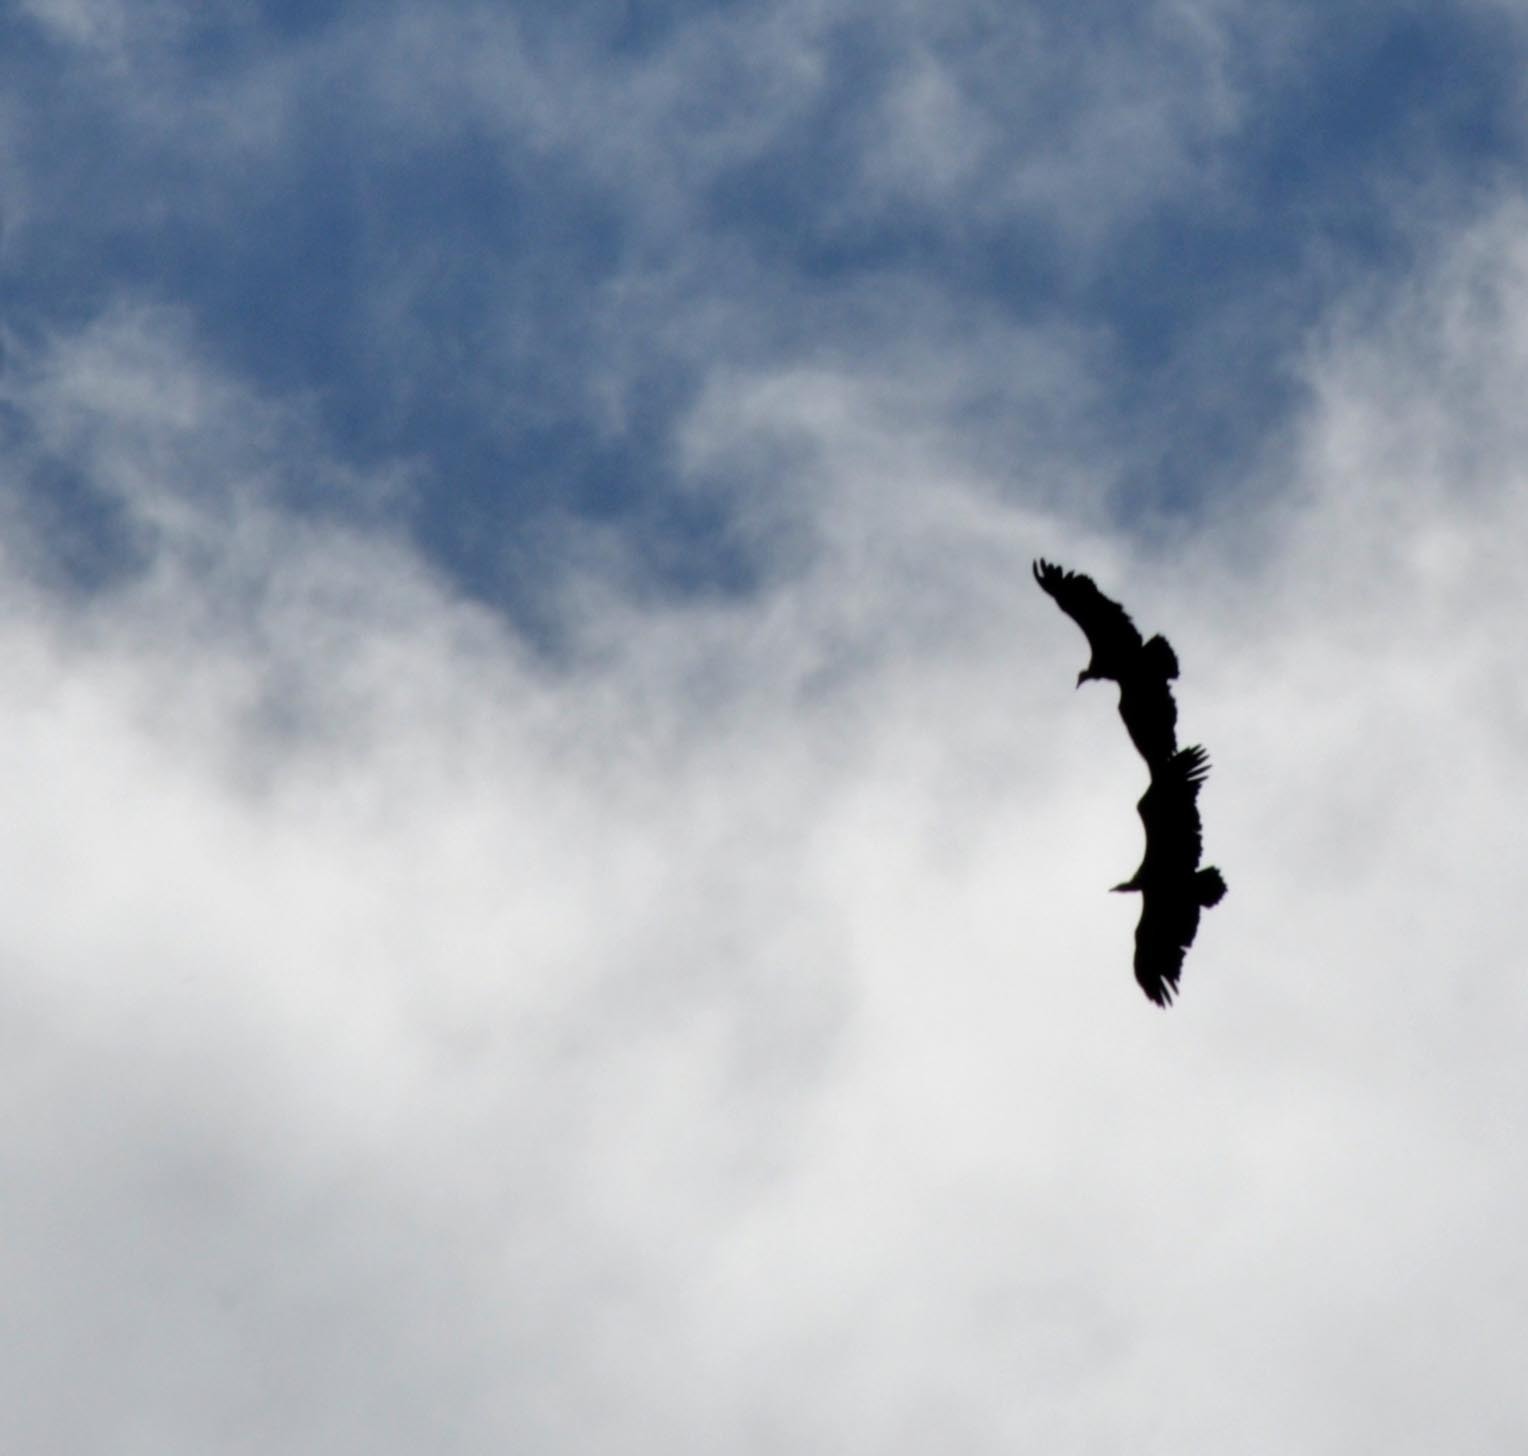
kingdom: Animalia
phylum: Chordata
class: Aves
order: Accipitriformes
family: Accipitridae
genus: Gyps
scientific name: Gyps fulvus
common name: Griffon vulture
